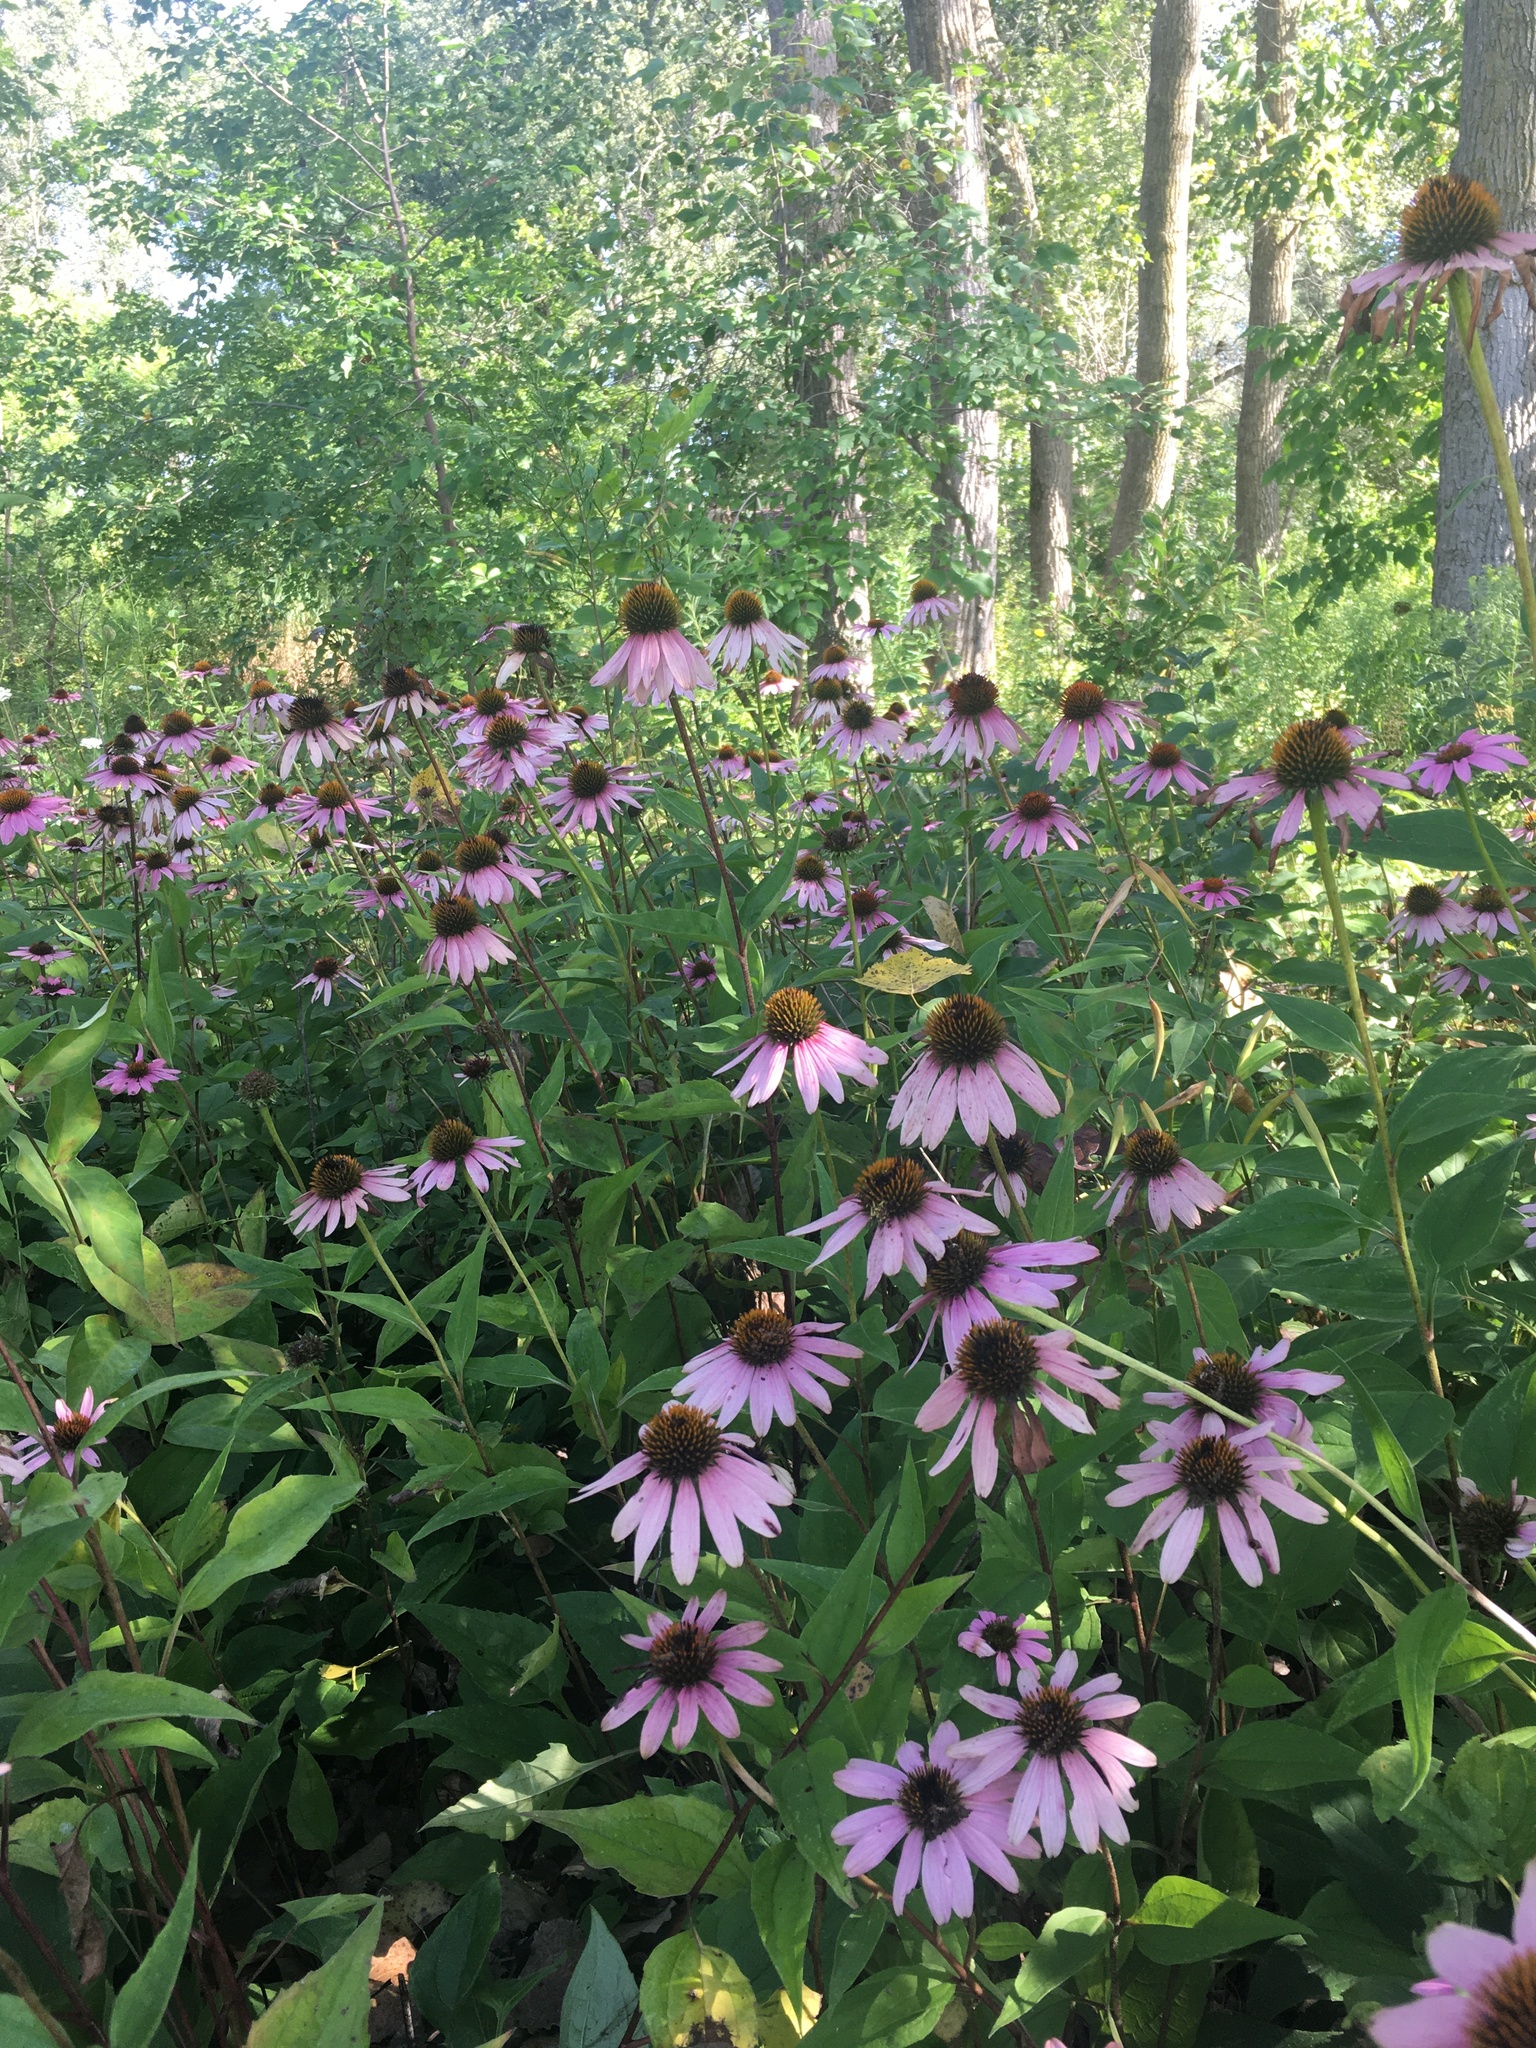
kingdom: Plantae
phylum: Tracheophyta
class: Magnoliopsida
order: Asterales
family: Asteraceae
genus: Echinacea
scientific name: Echinacea purpurea
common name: Broad-leaved purple coneflower
